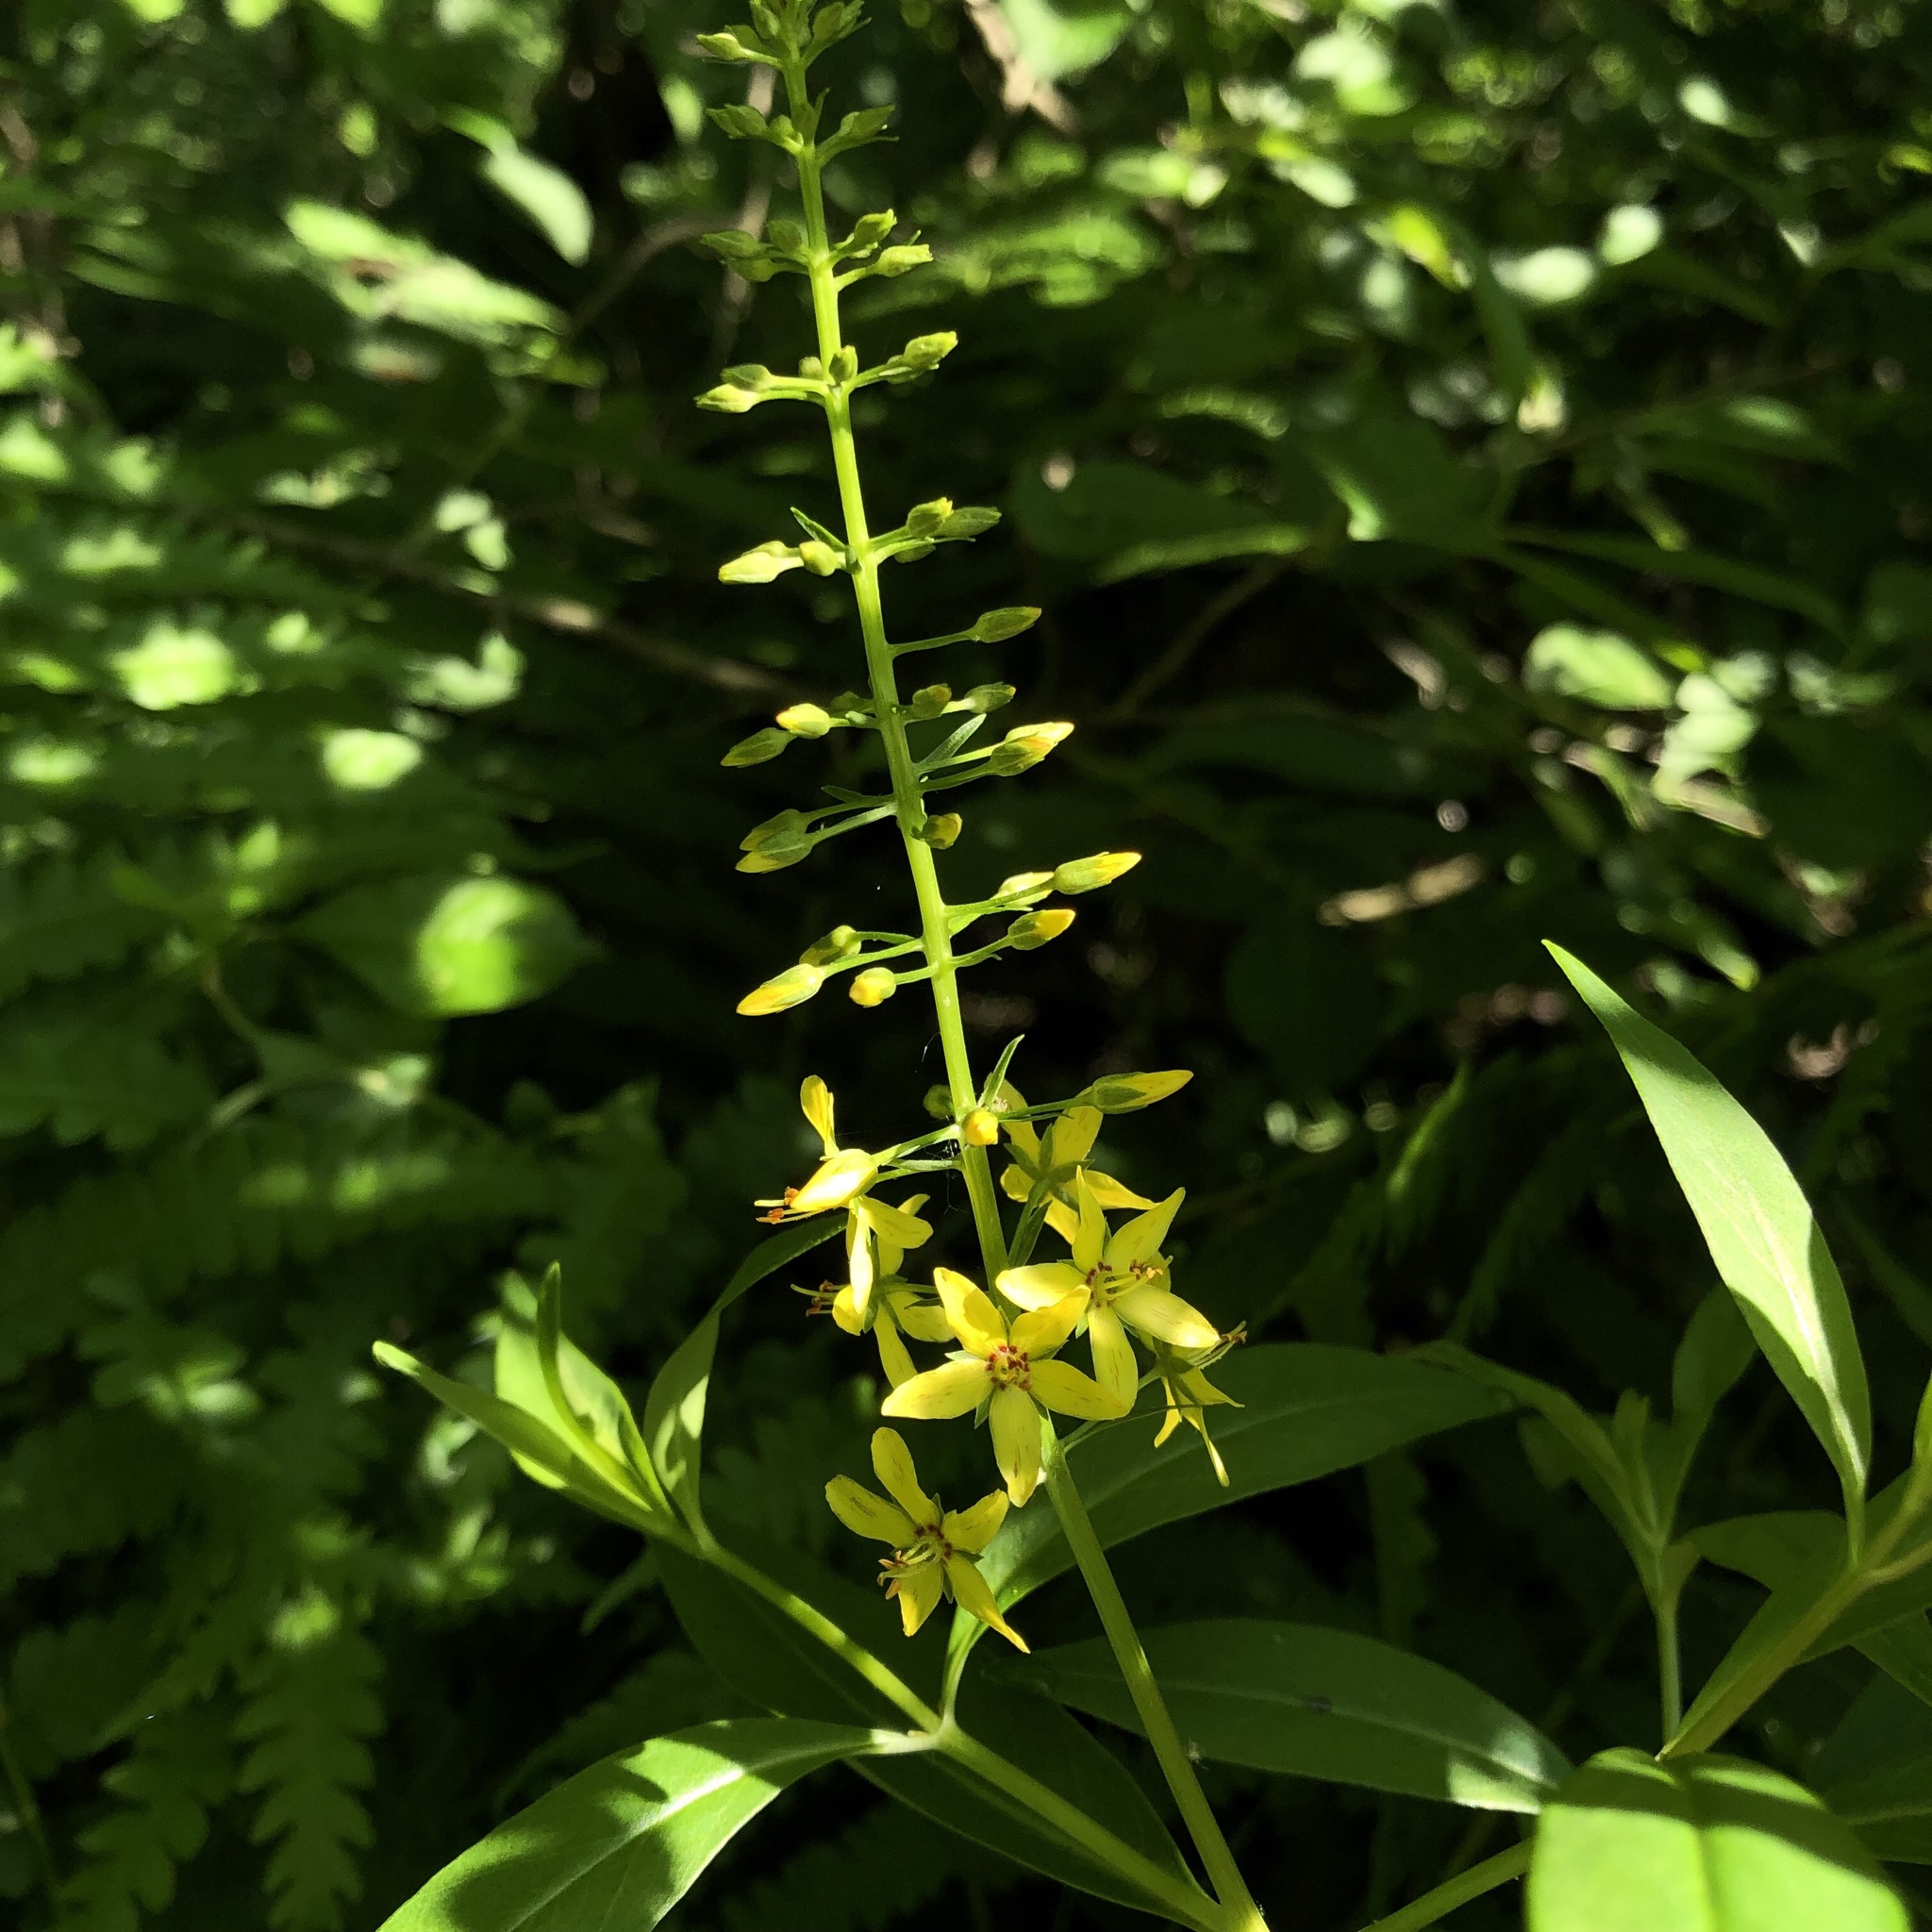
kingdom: Plantae
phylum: Tracheophyta
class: Magnoliopsida
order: Ericales
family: Primulaceae
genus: Lysimachia
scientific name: Lysimachia terrestris
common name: Lake loosestrife
